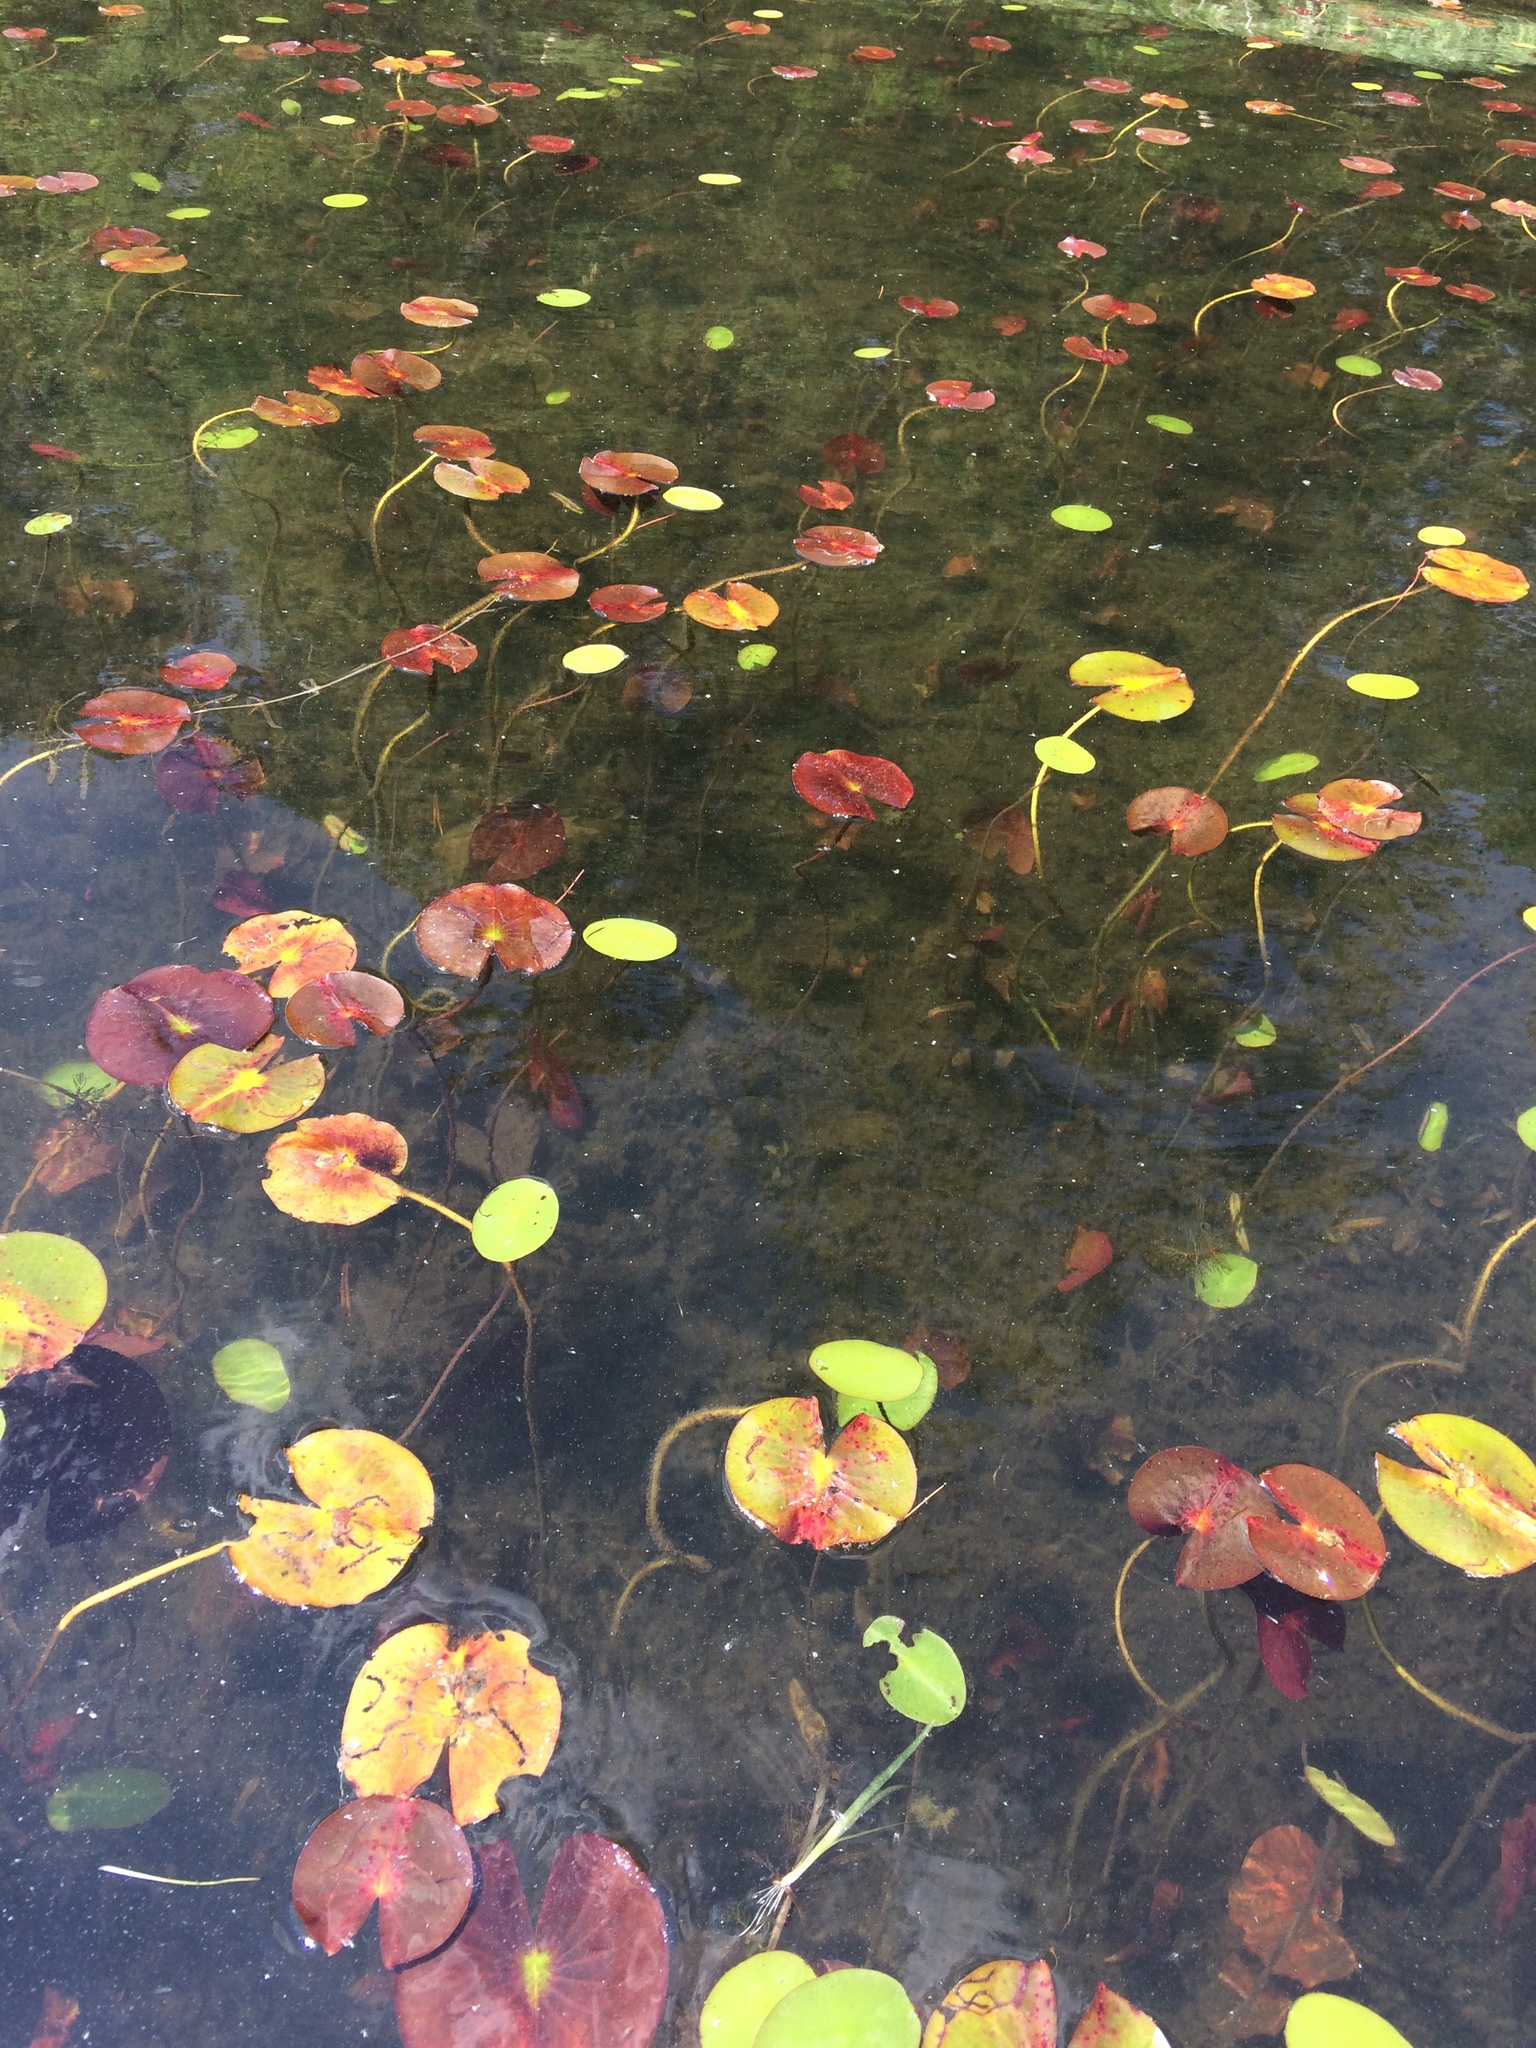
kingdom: Plantae
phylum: Tracheophyta
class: Magnoliopsida
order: Nymphaeales
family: Cabombaceae
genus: Brasenia
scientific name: Brasenia schreberi
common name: Water-shield
